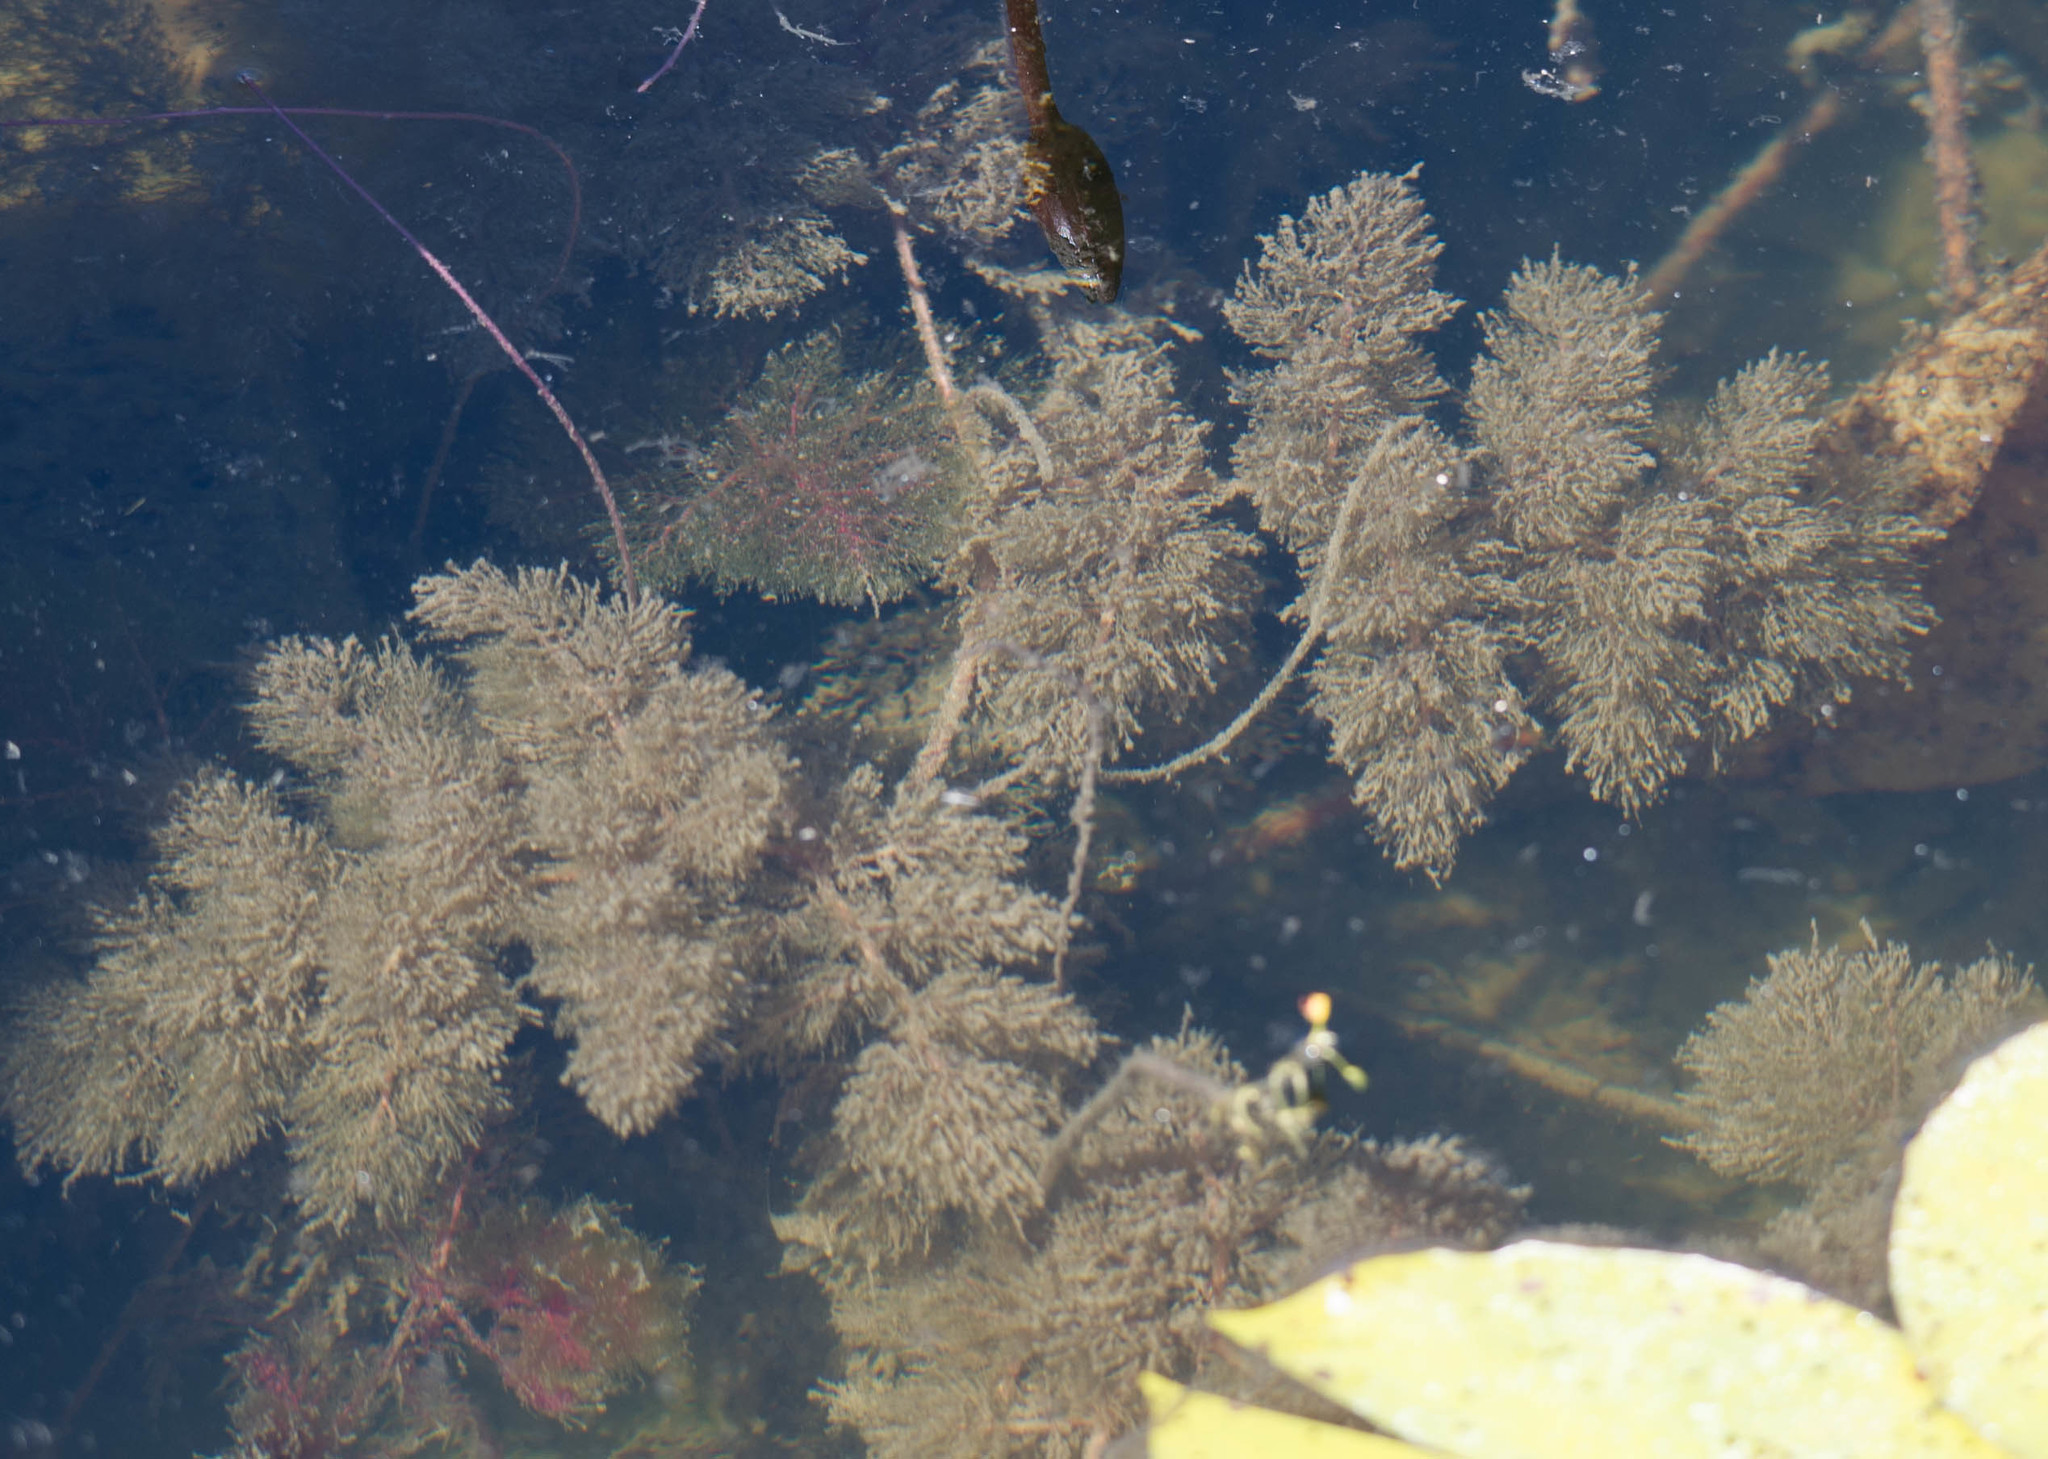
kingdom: Plantae
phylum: Tracheophyta
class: Magnoliopsida
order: Lamiales
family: Lentibulariaceae
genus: Utricularia
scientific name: Utricularia foliosa
